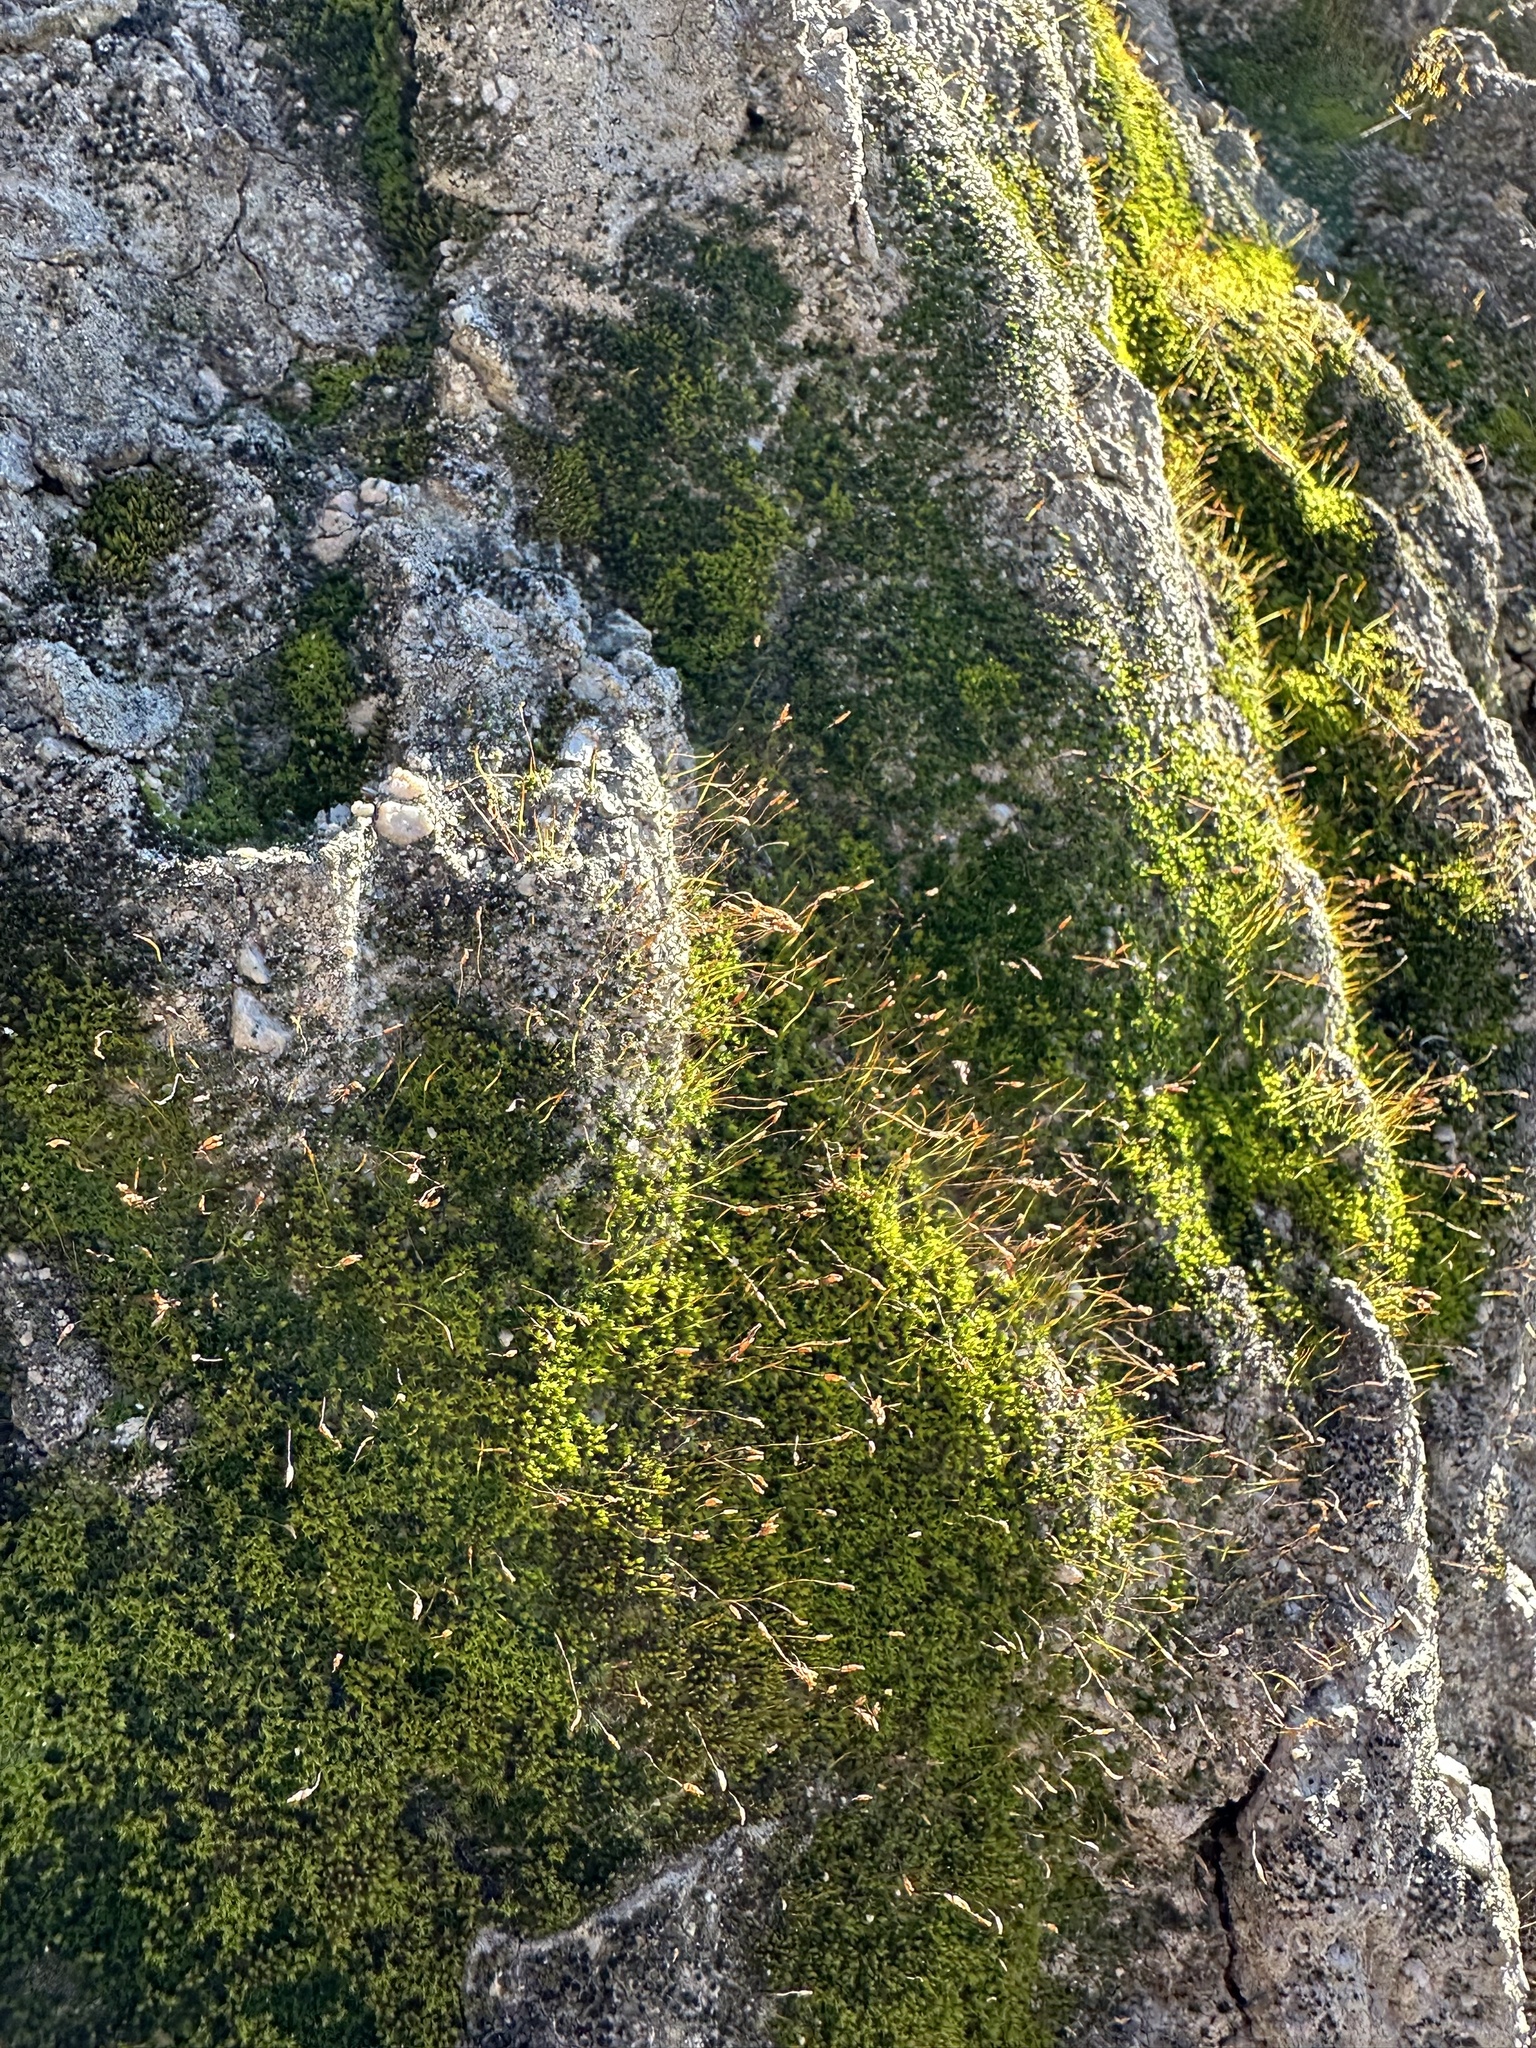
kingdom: Plantae
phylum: Bryophyta
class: Bryopsida
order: Pottiales
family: Pottiaceae
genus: Tortula
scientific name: Tortula muralis
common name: Wall screw-moss
